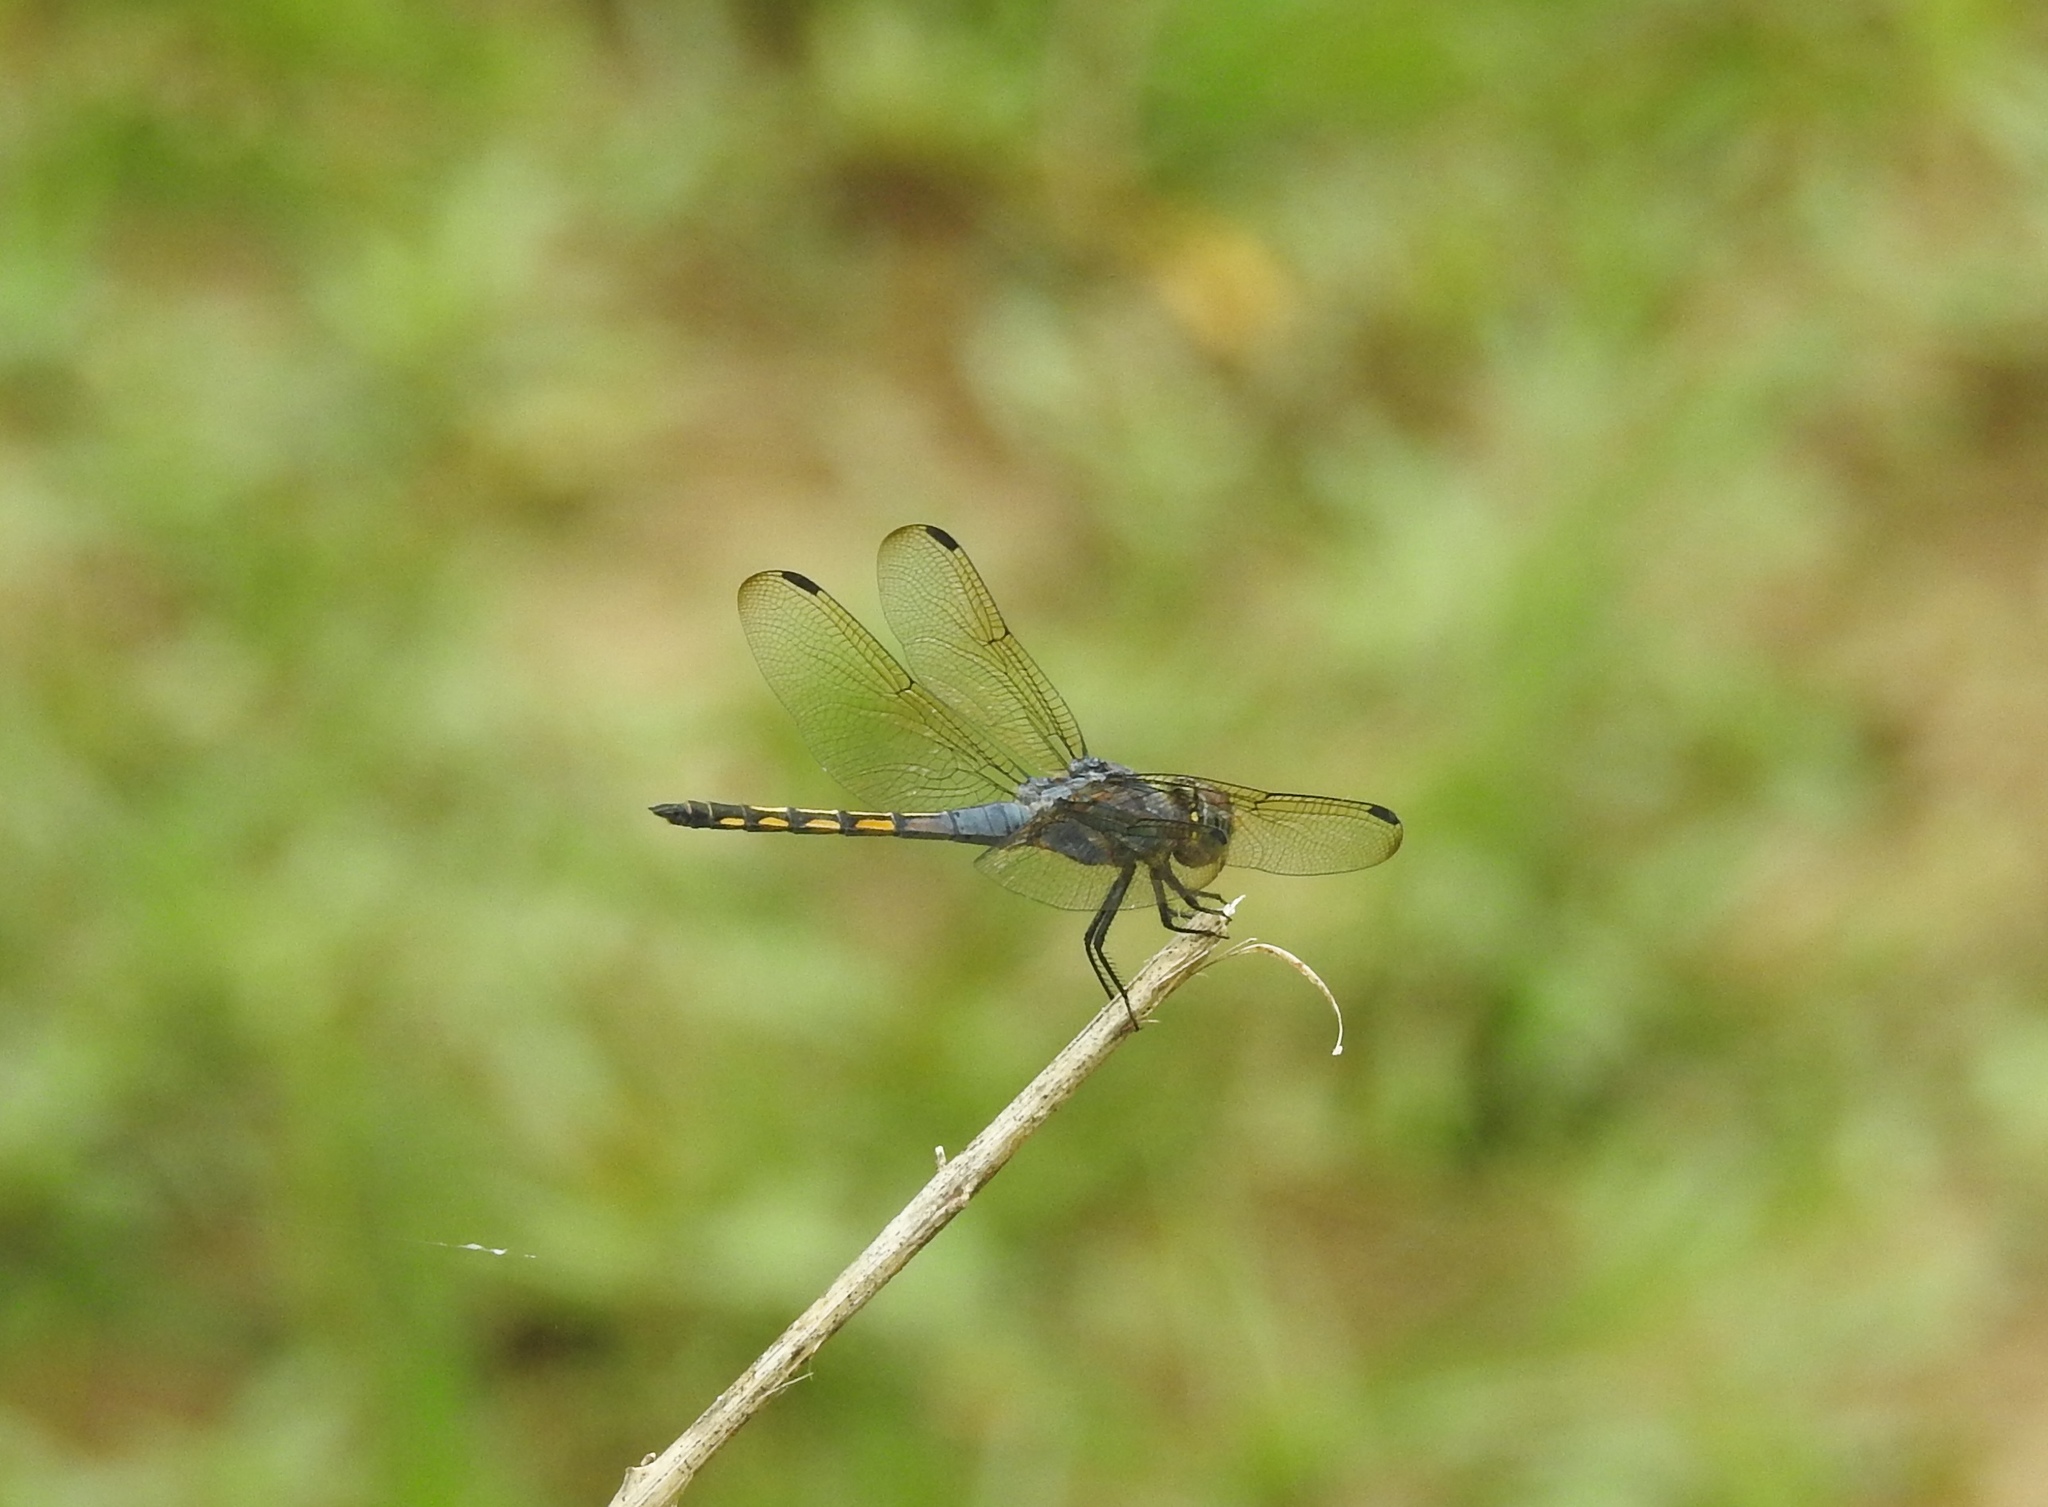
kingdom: Animalia
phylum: Arthropoda
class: Insecta
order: Odonata
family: Libellulidae
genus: Potamarcha
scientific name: Potamarcha congener
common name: Blue chaser
